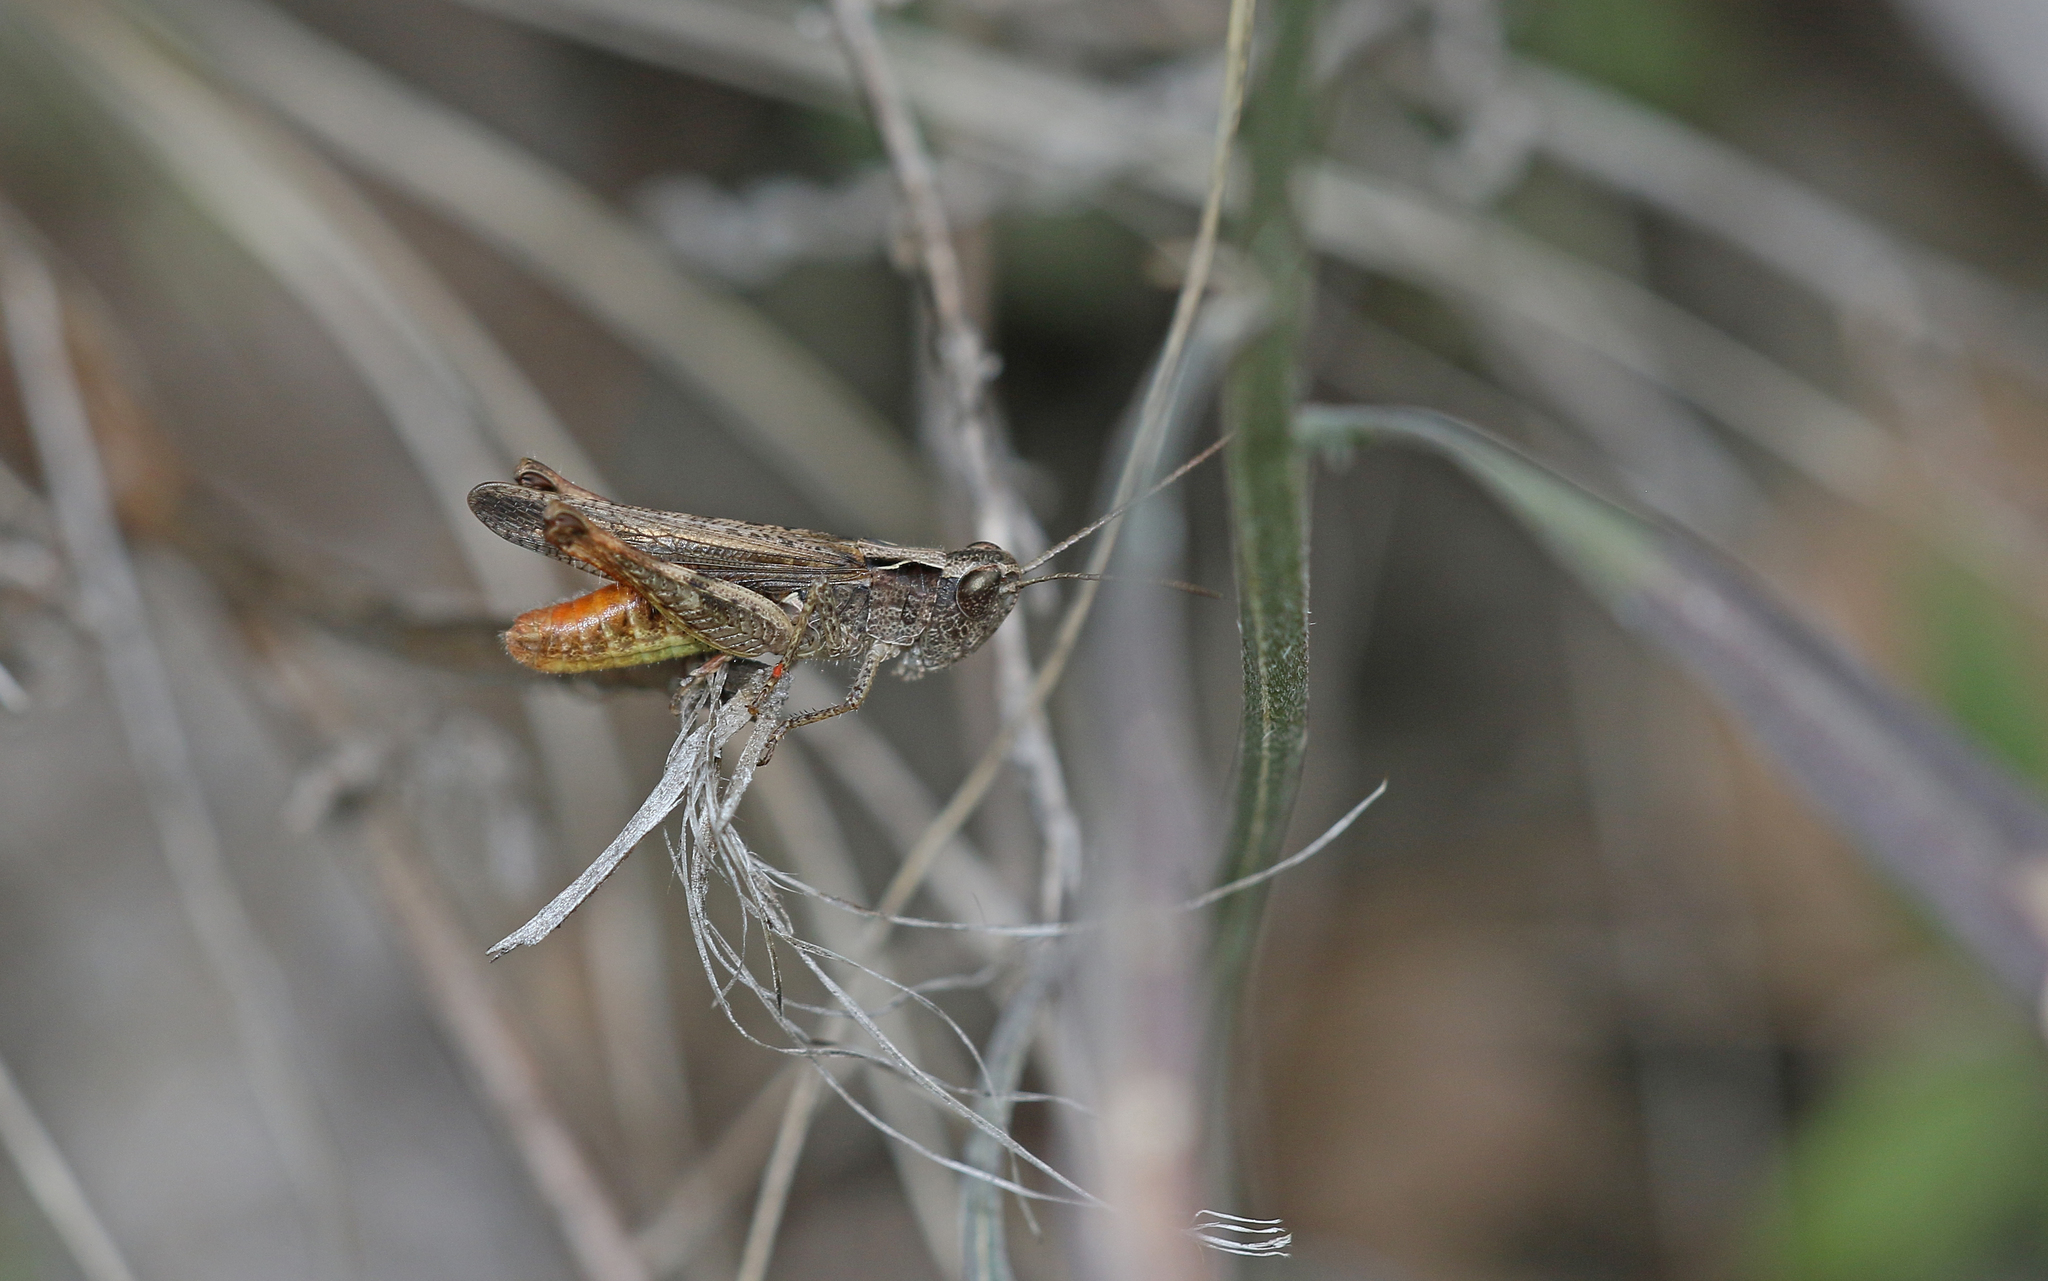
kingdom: Animalia
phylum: Arthropoda
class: Insecta
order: Orthoptera
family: Acrididae
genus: Chorthippus
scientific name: Chorthippus vagans
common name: Heath grasshopper
